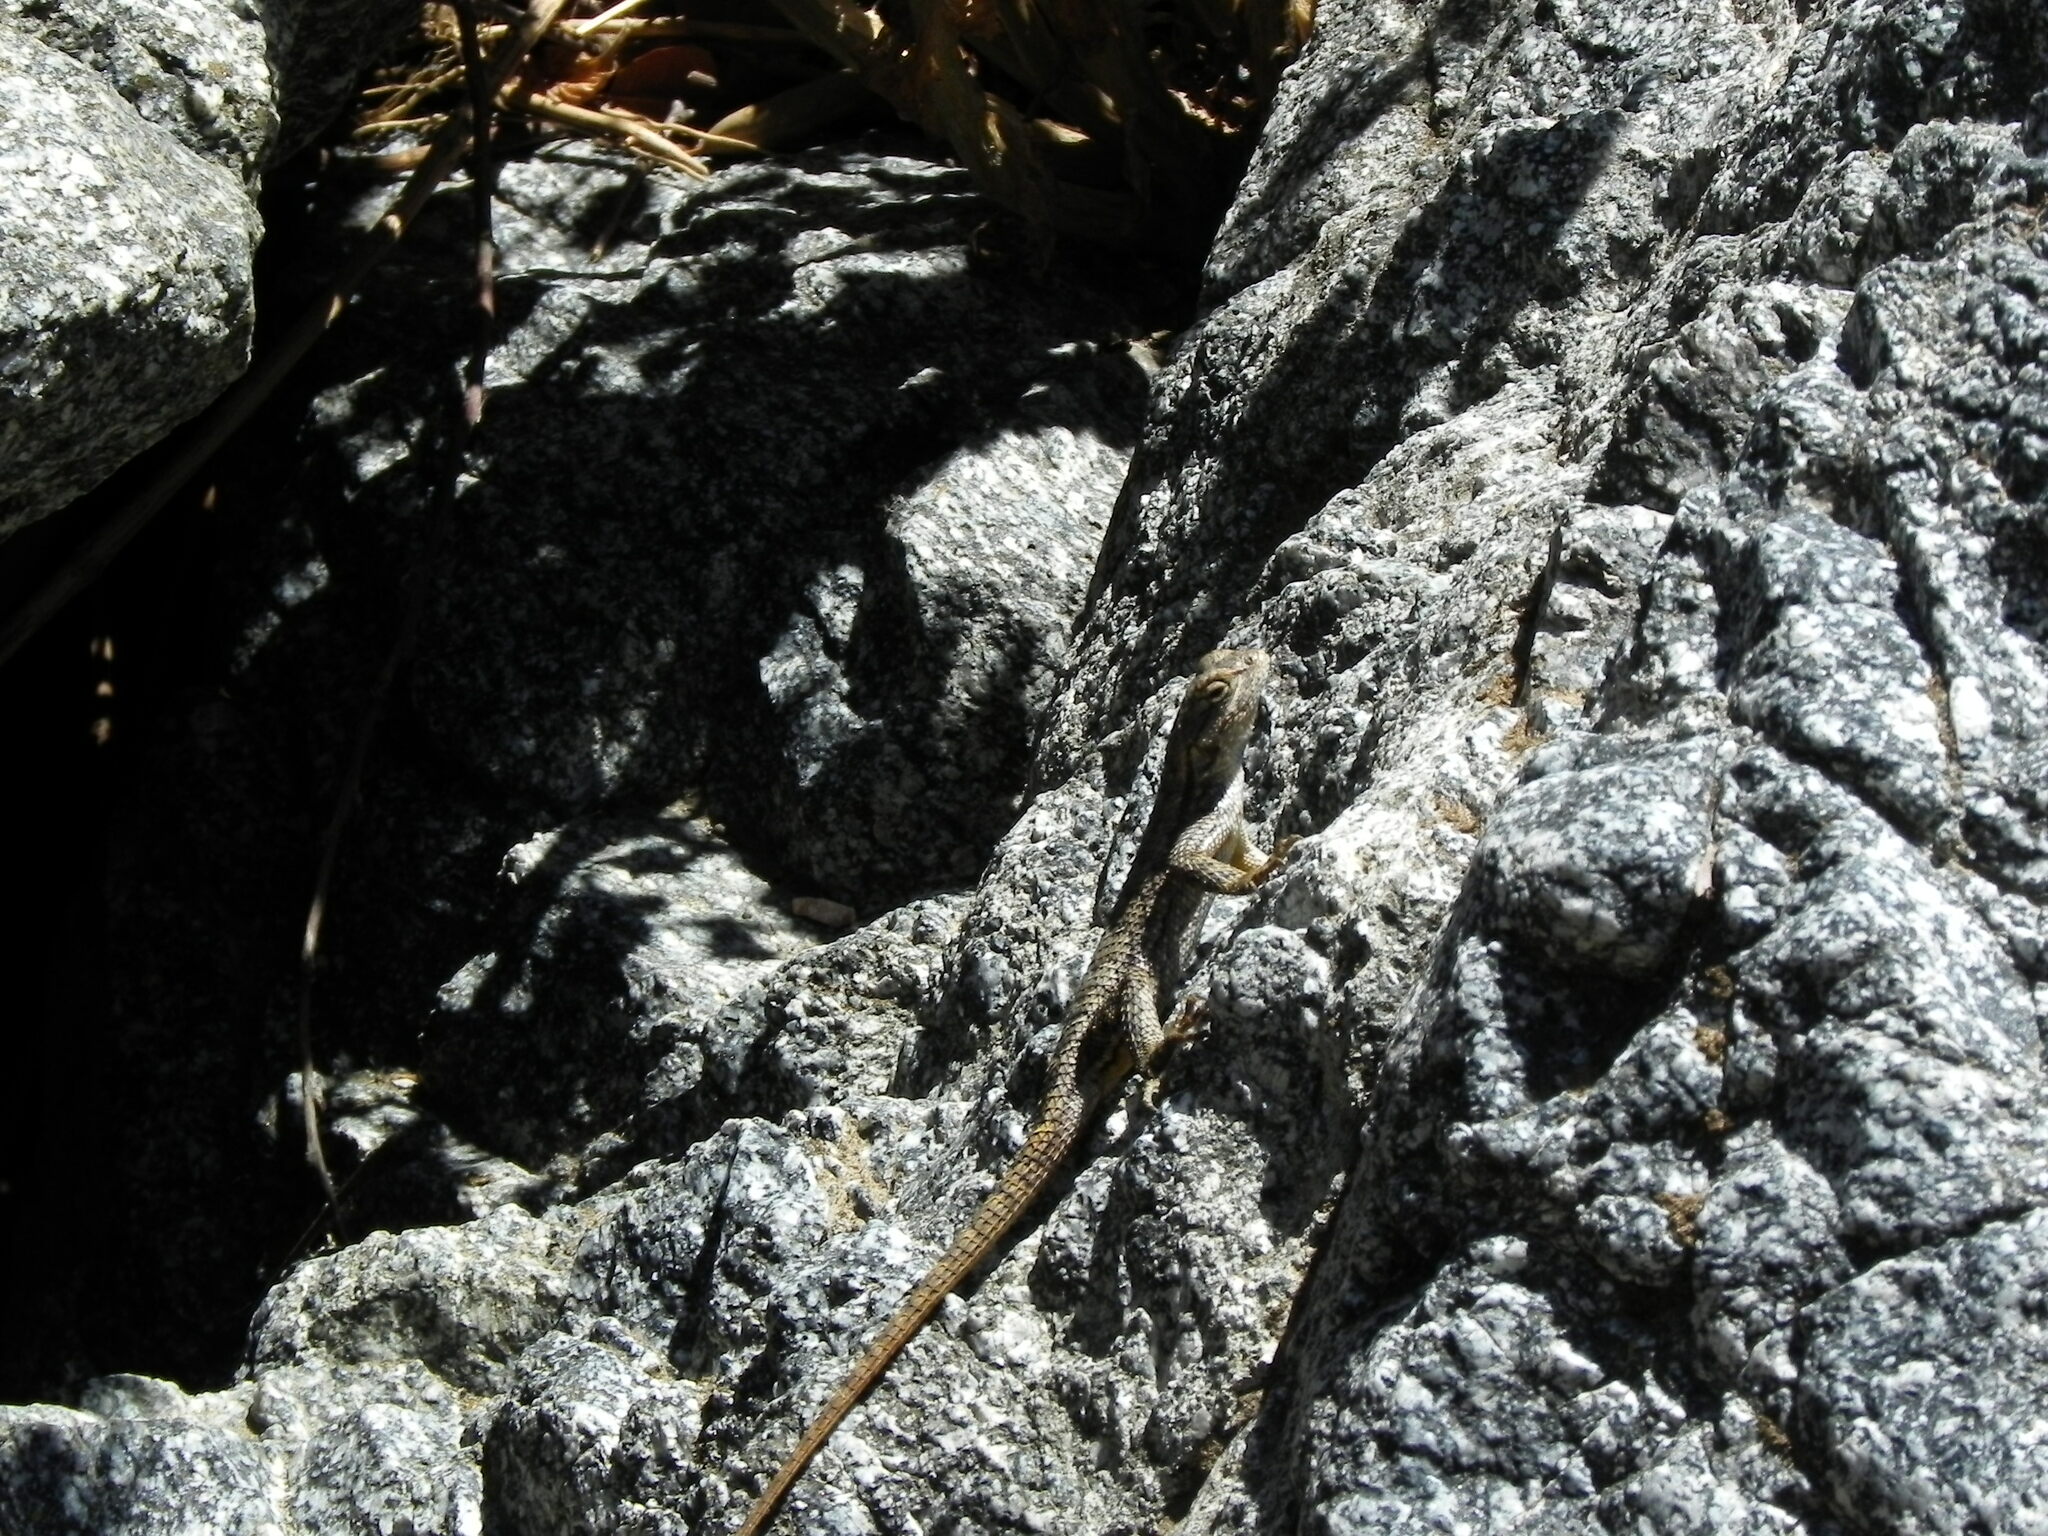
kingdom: Animalia
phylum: Chordata
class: Squamata
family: Phrynosomatidae
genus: Sceloporus
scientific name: Sceloporus occidentalis
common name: Western fence lizard
